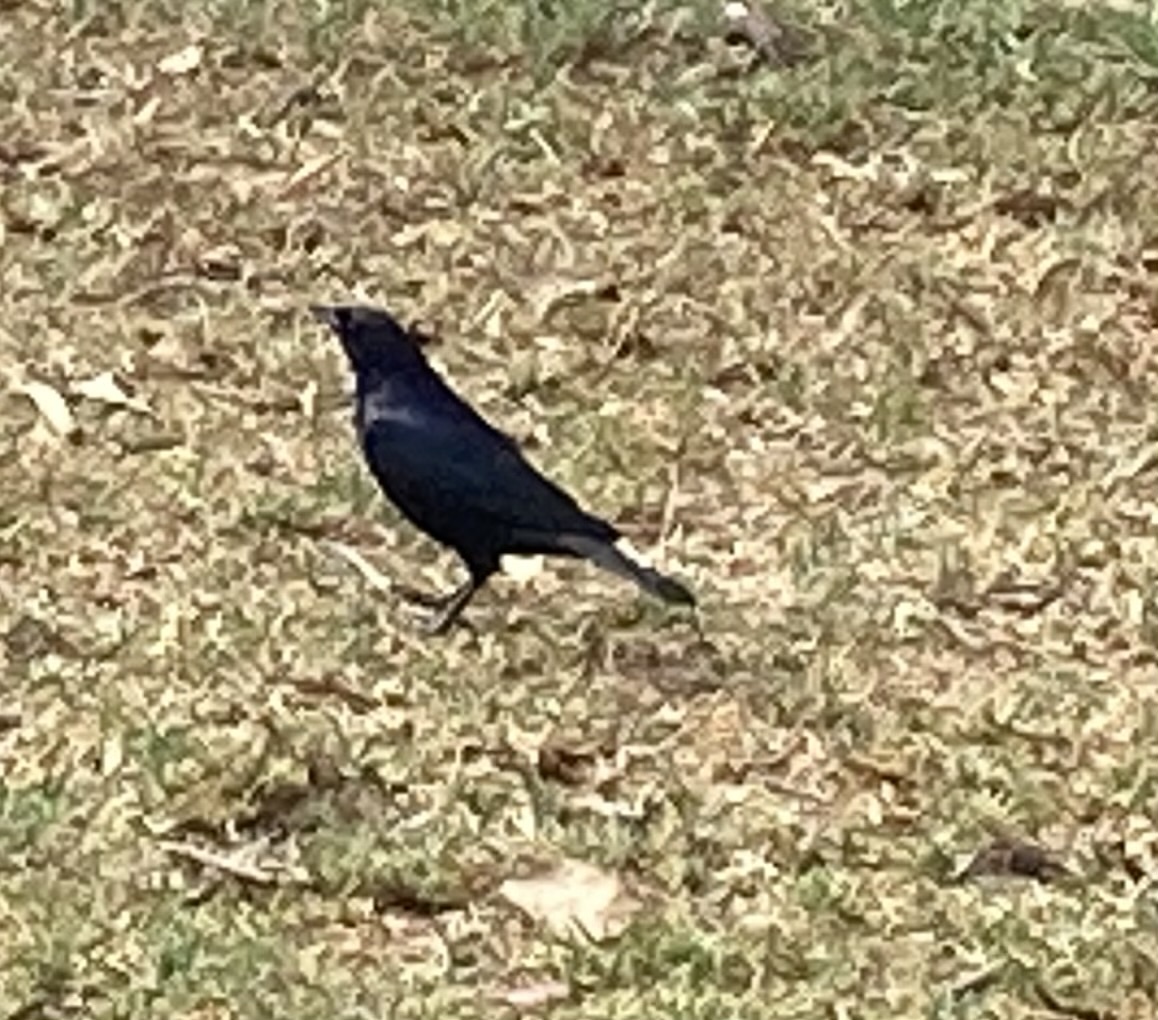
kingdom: Animalia
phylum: Chordata
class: Aves
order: Passeriformes
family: Icteridae
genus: Molothrus
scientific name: Molothrus bonariensis
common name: Shiny cowbird
